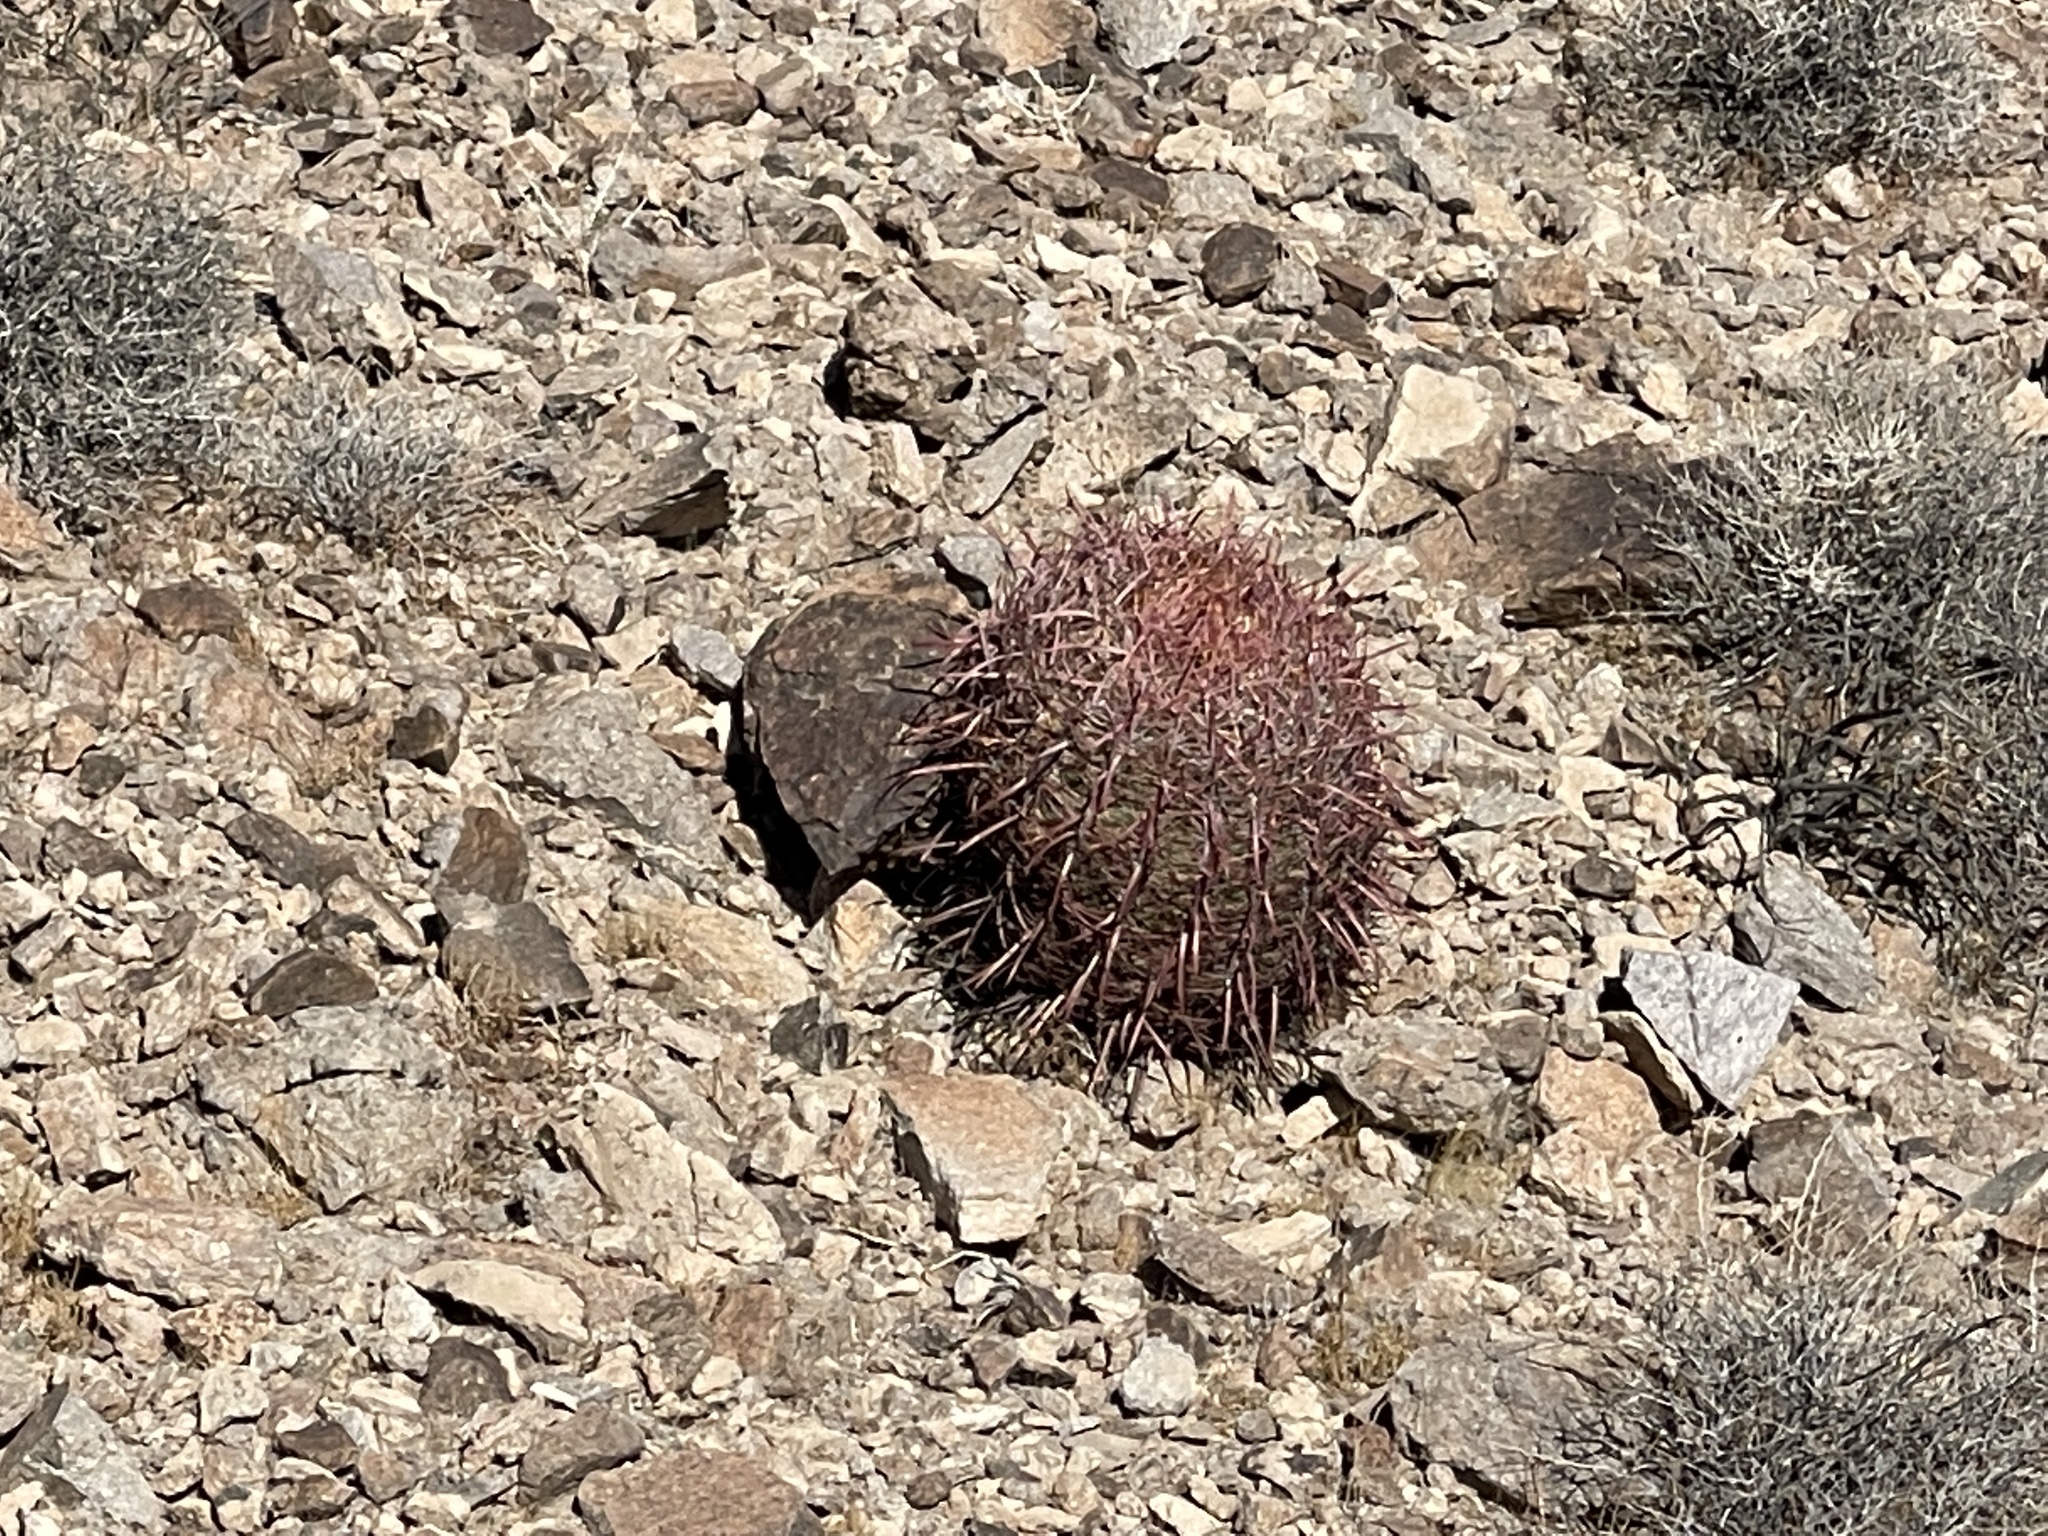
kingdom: Plantae
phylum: Tracheophyta
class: Magnoliopsida
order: Caryophyllales
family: Cactaceae
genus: Ferocactus
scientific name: Ferocactus cylindraceus
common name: California barrel cactus
